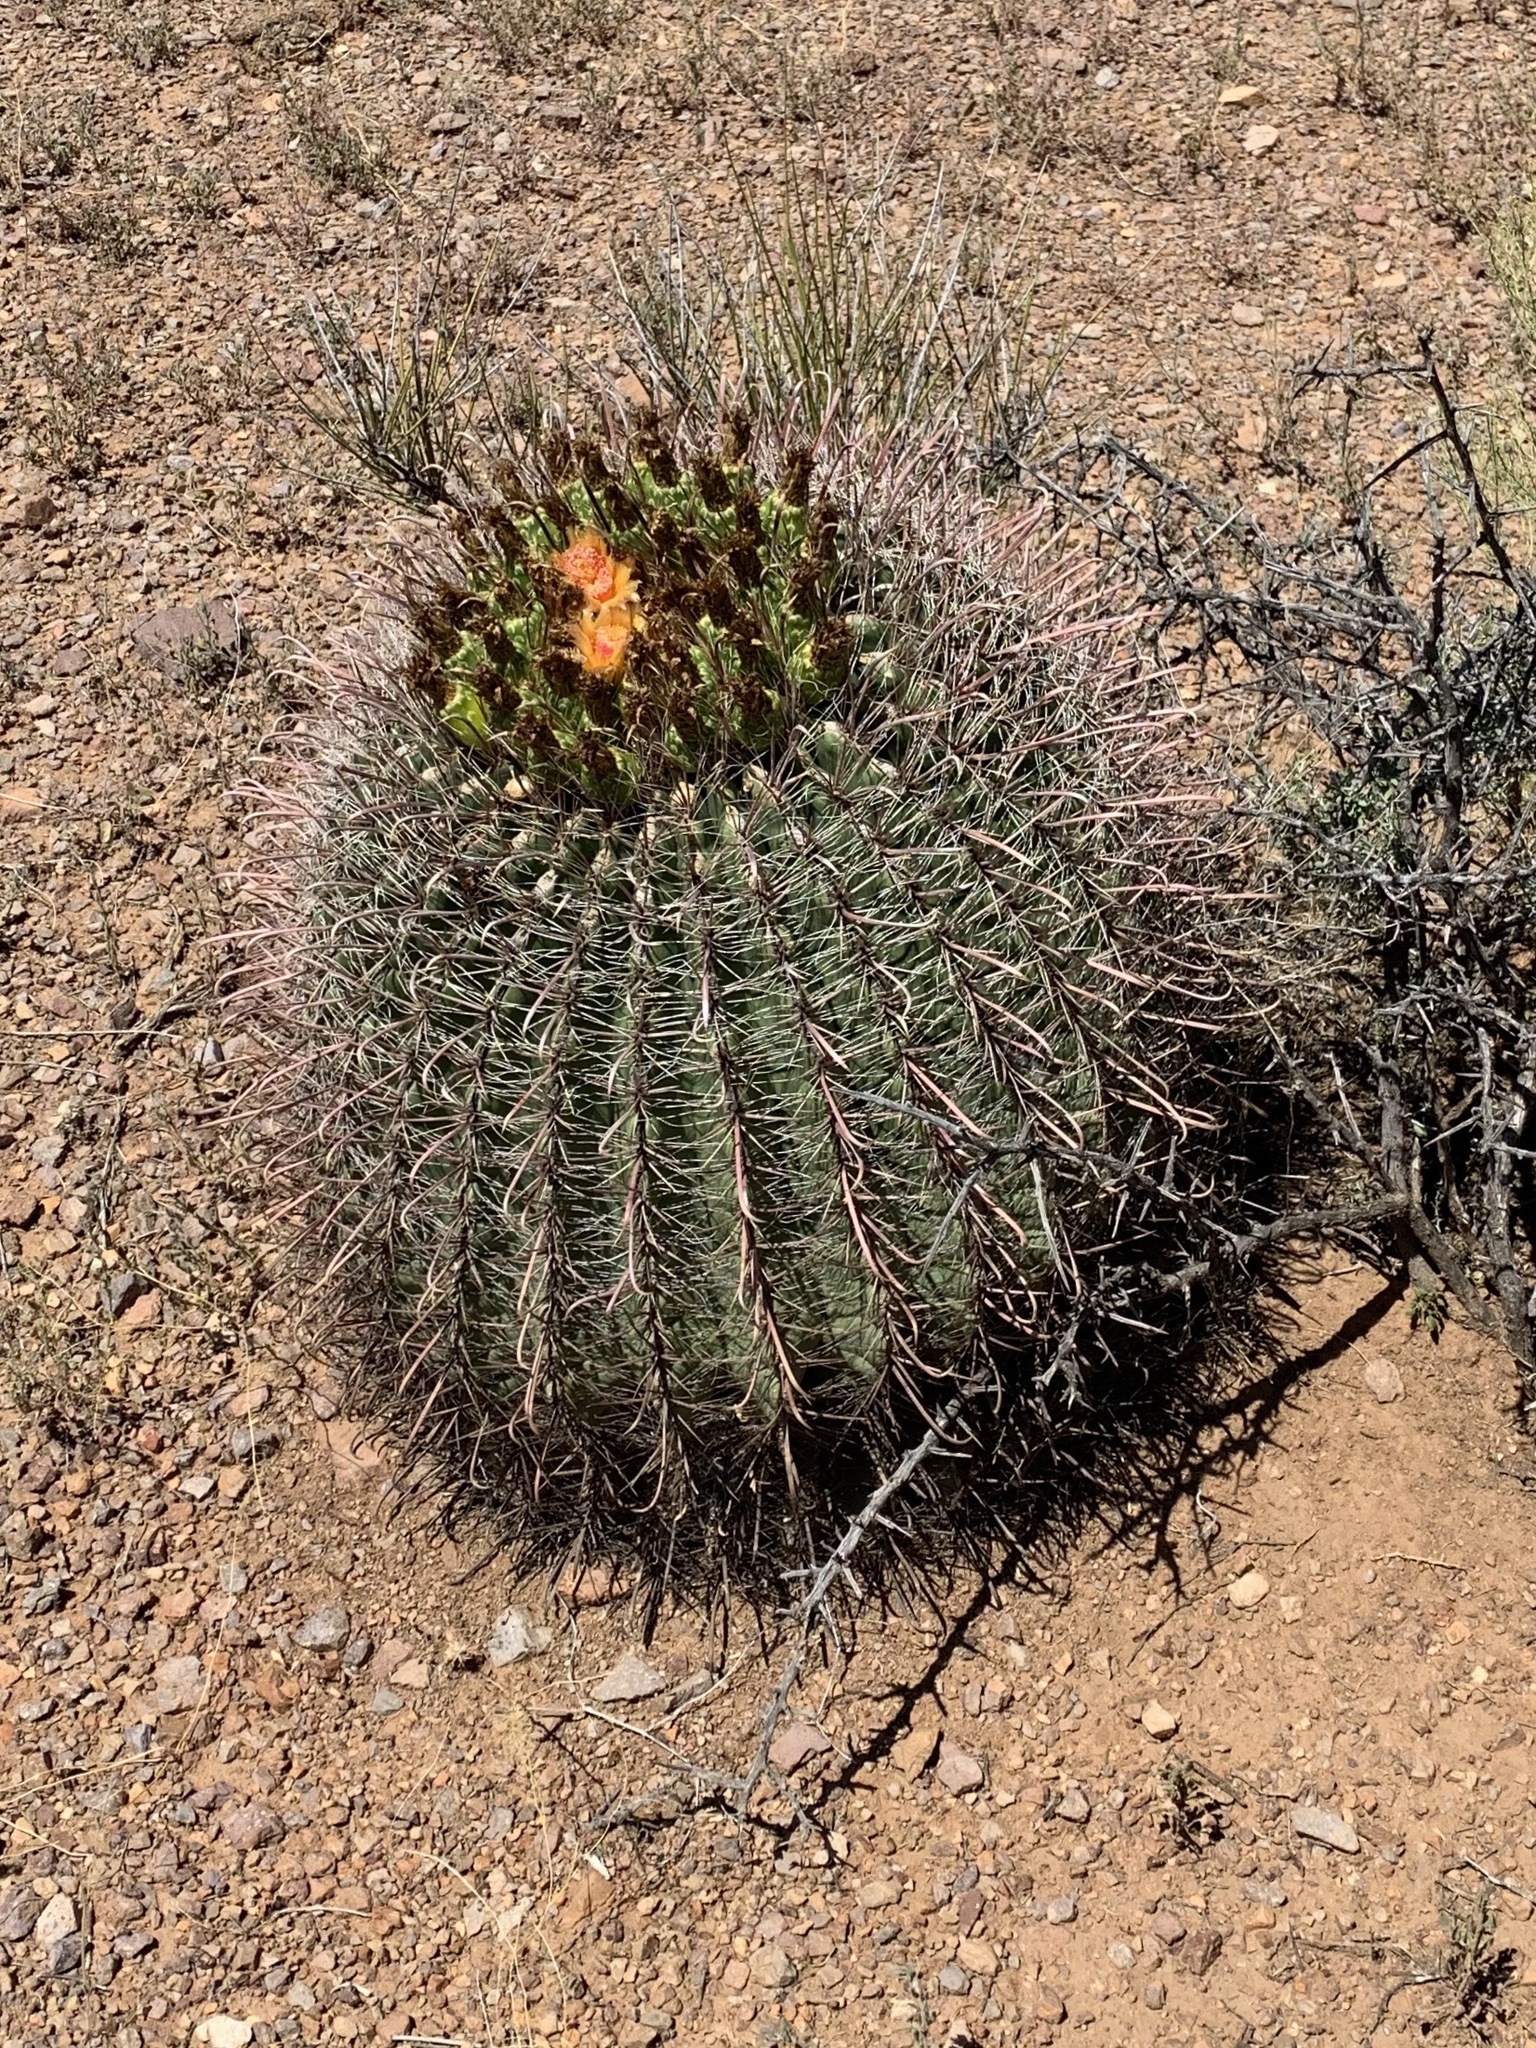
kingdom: Plantae
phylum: Tracheophyta
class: Magnoliopsida
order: Caryophyllales
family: Cactaceae
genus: Ferocactus
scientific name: Ferocactus wislizeni
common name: Candy barrel cactus
